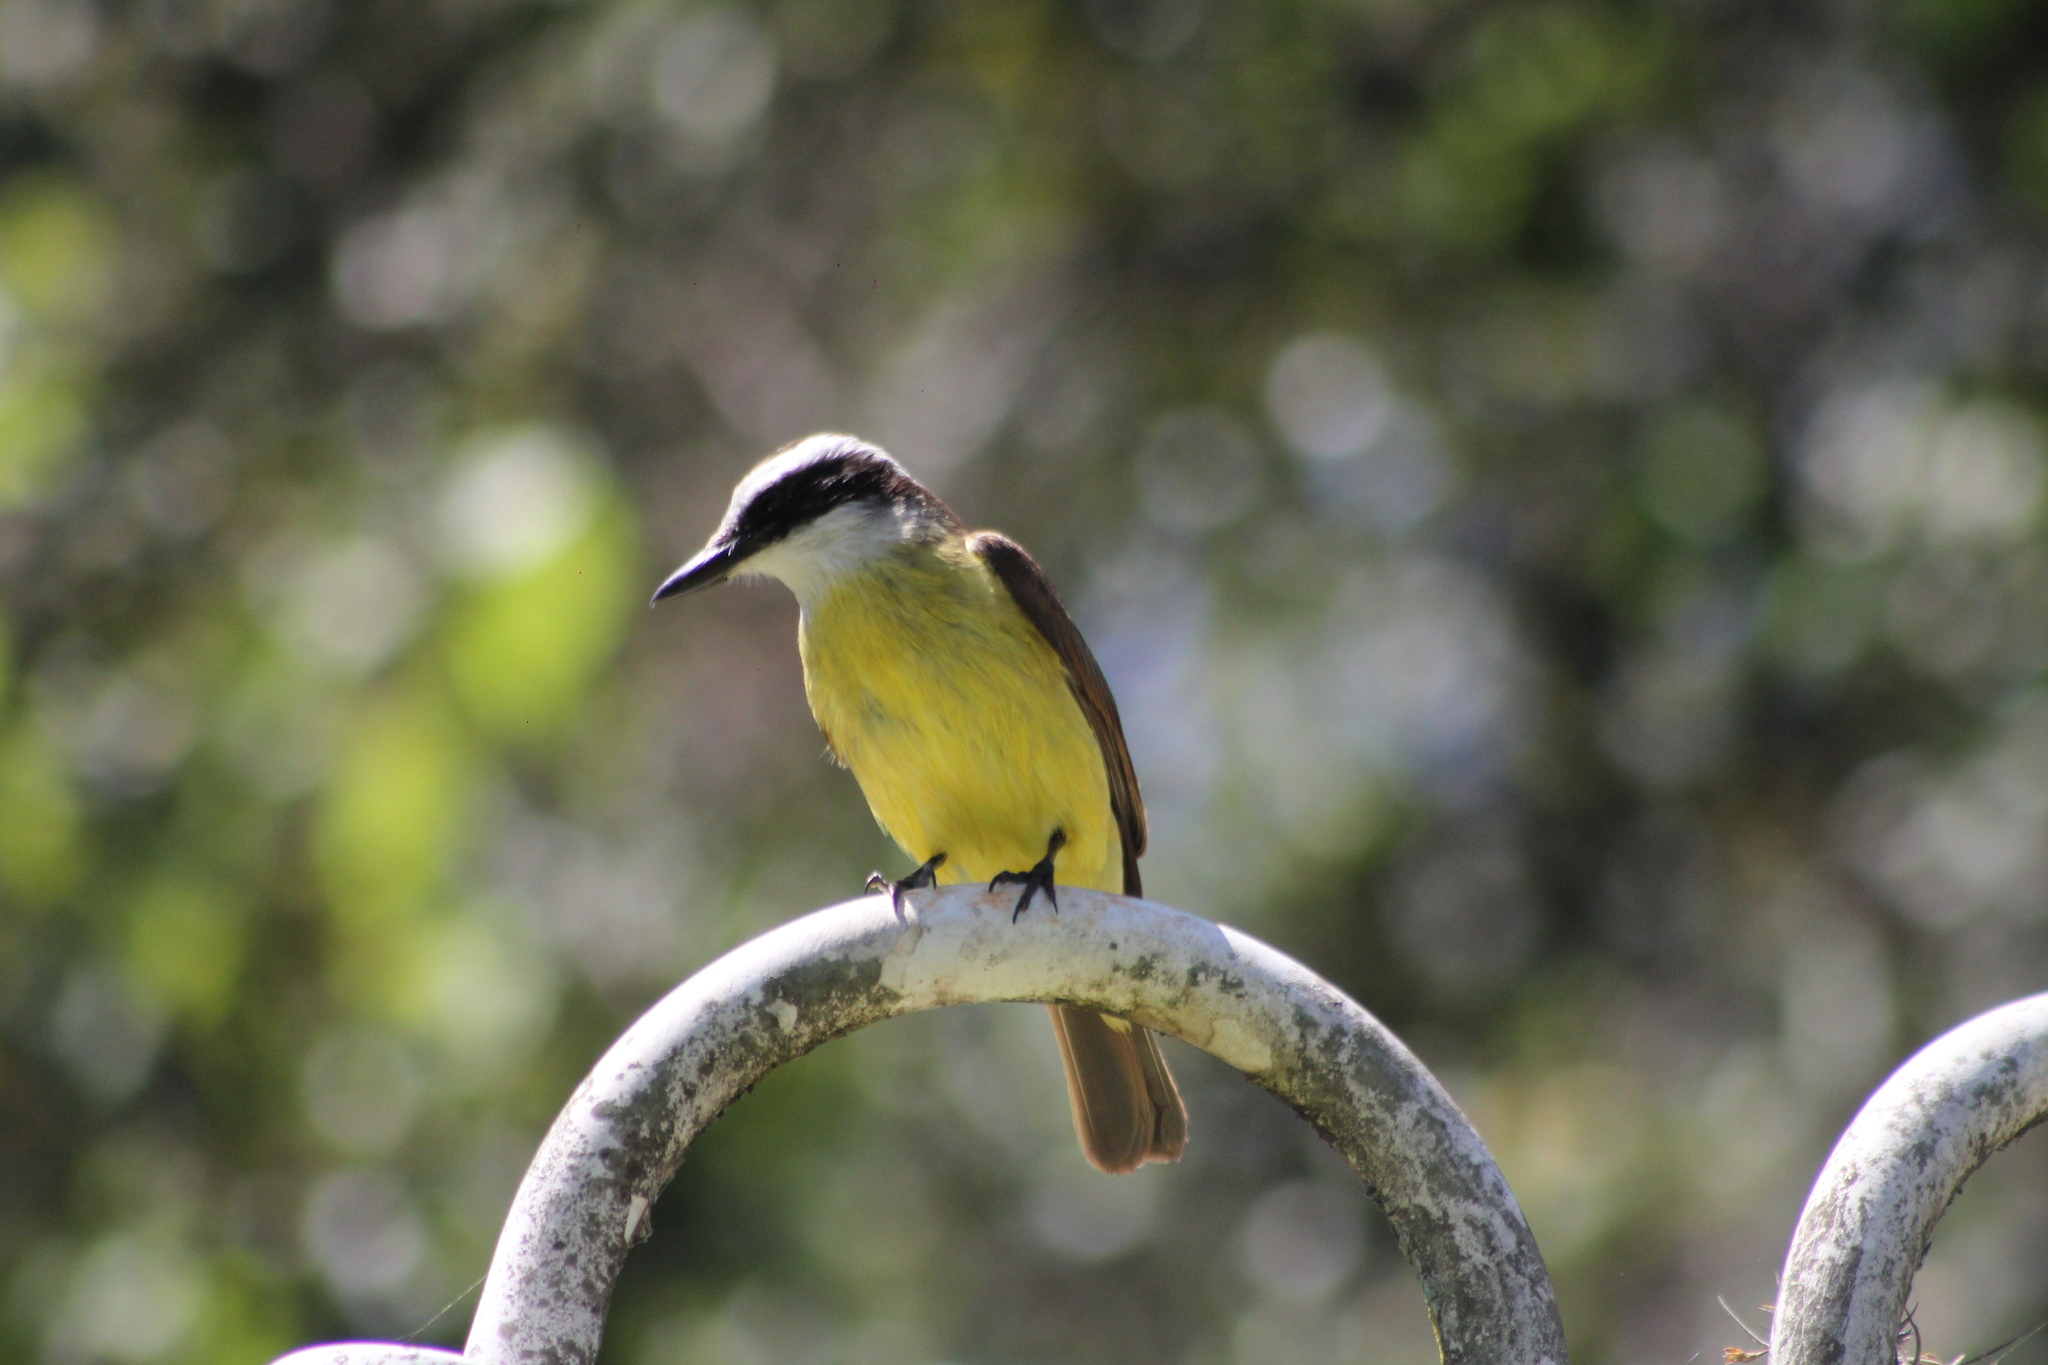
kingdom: Animalia
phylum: Chordata
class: Aves
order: Passeriformes
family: Tyrannidae
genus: Pitangus
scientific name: Pitangus sulphuratus
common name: Great kiskadee
